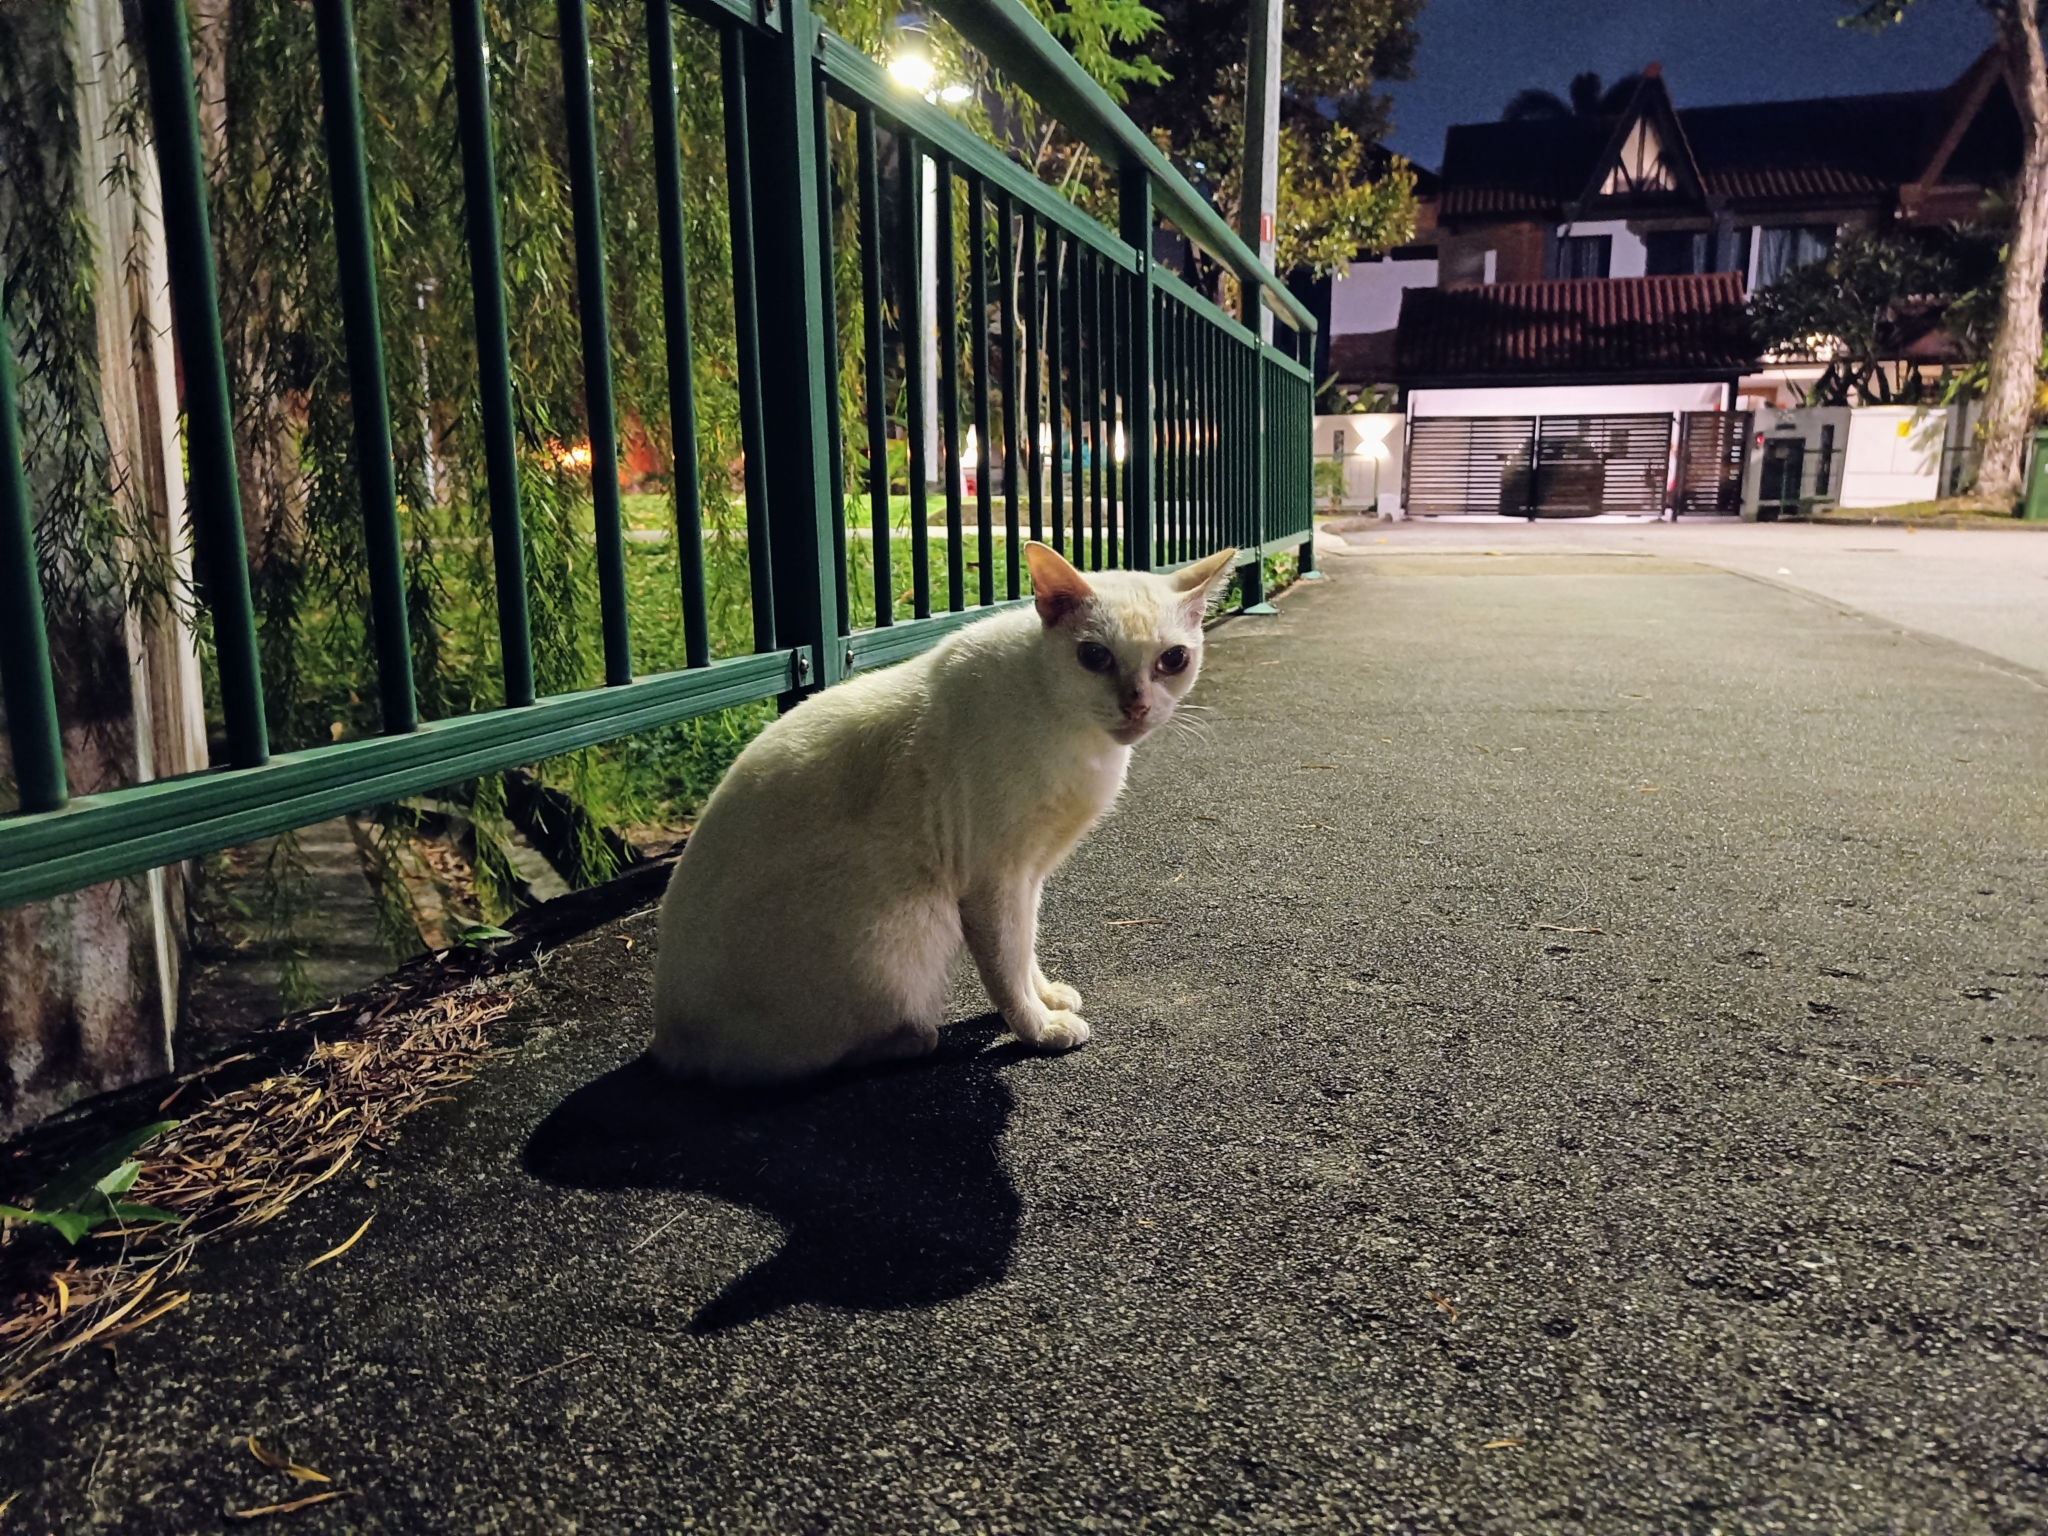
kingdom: Animalia
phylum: Chordata
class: Mammalia
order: Carnivora
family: Felidae
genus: Felis
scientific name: Felis catus
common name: Domestic cat
